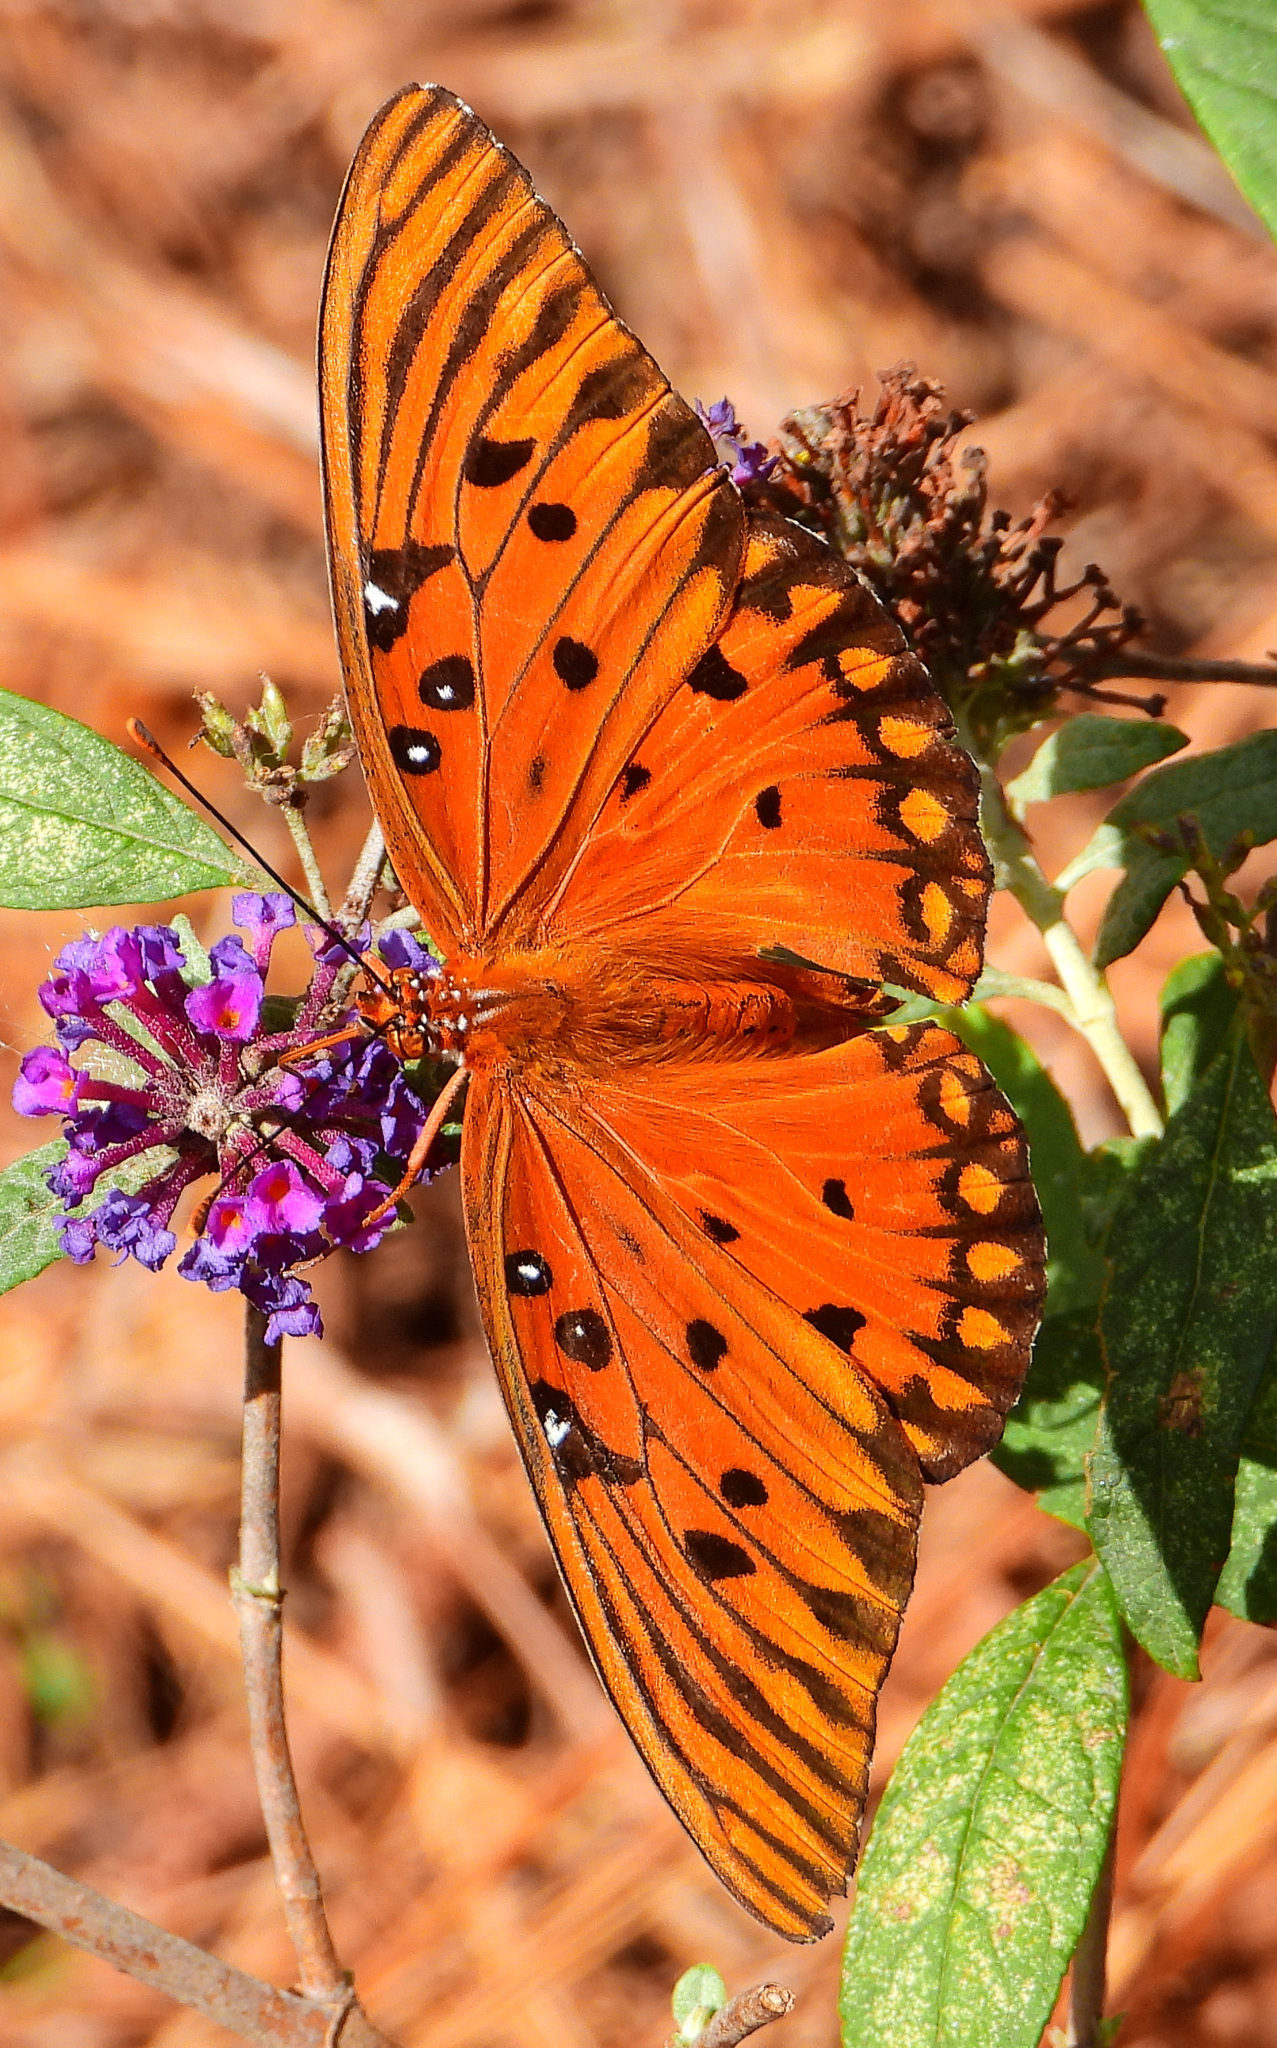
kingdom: Animalia
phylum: Arthropoda
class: Insecta
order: Lepidoptera
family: Nymphalidae
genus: Dione
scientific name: Dione vanillae
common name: Gulf fritillary
